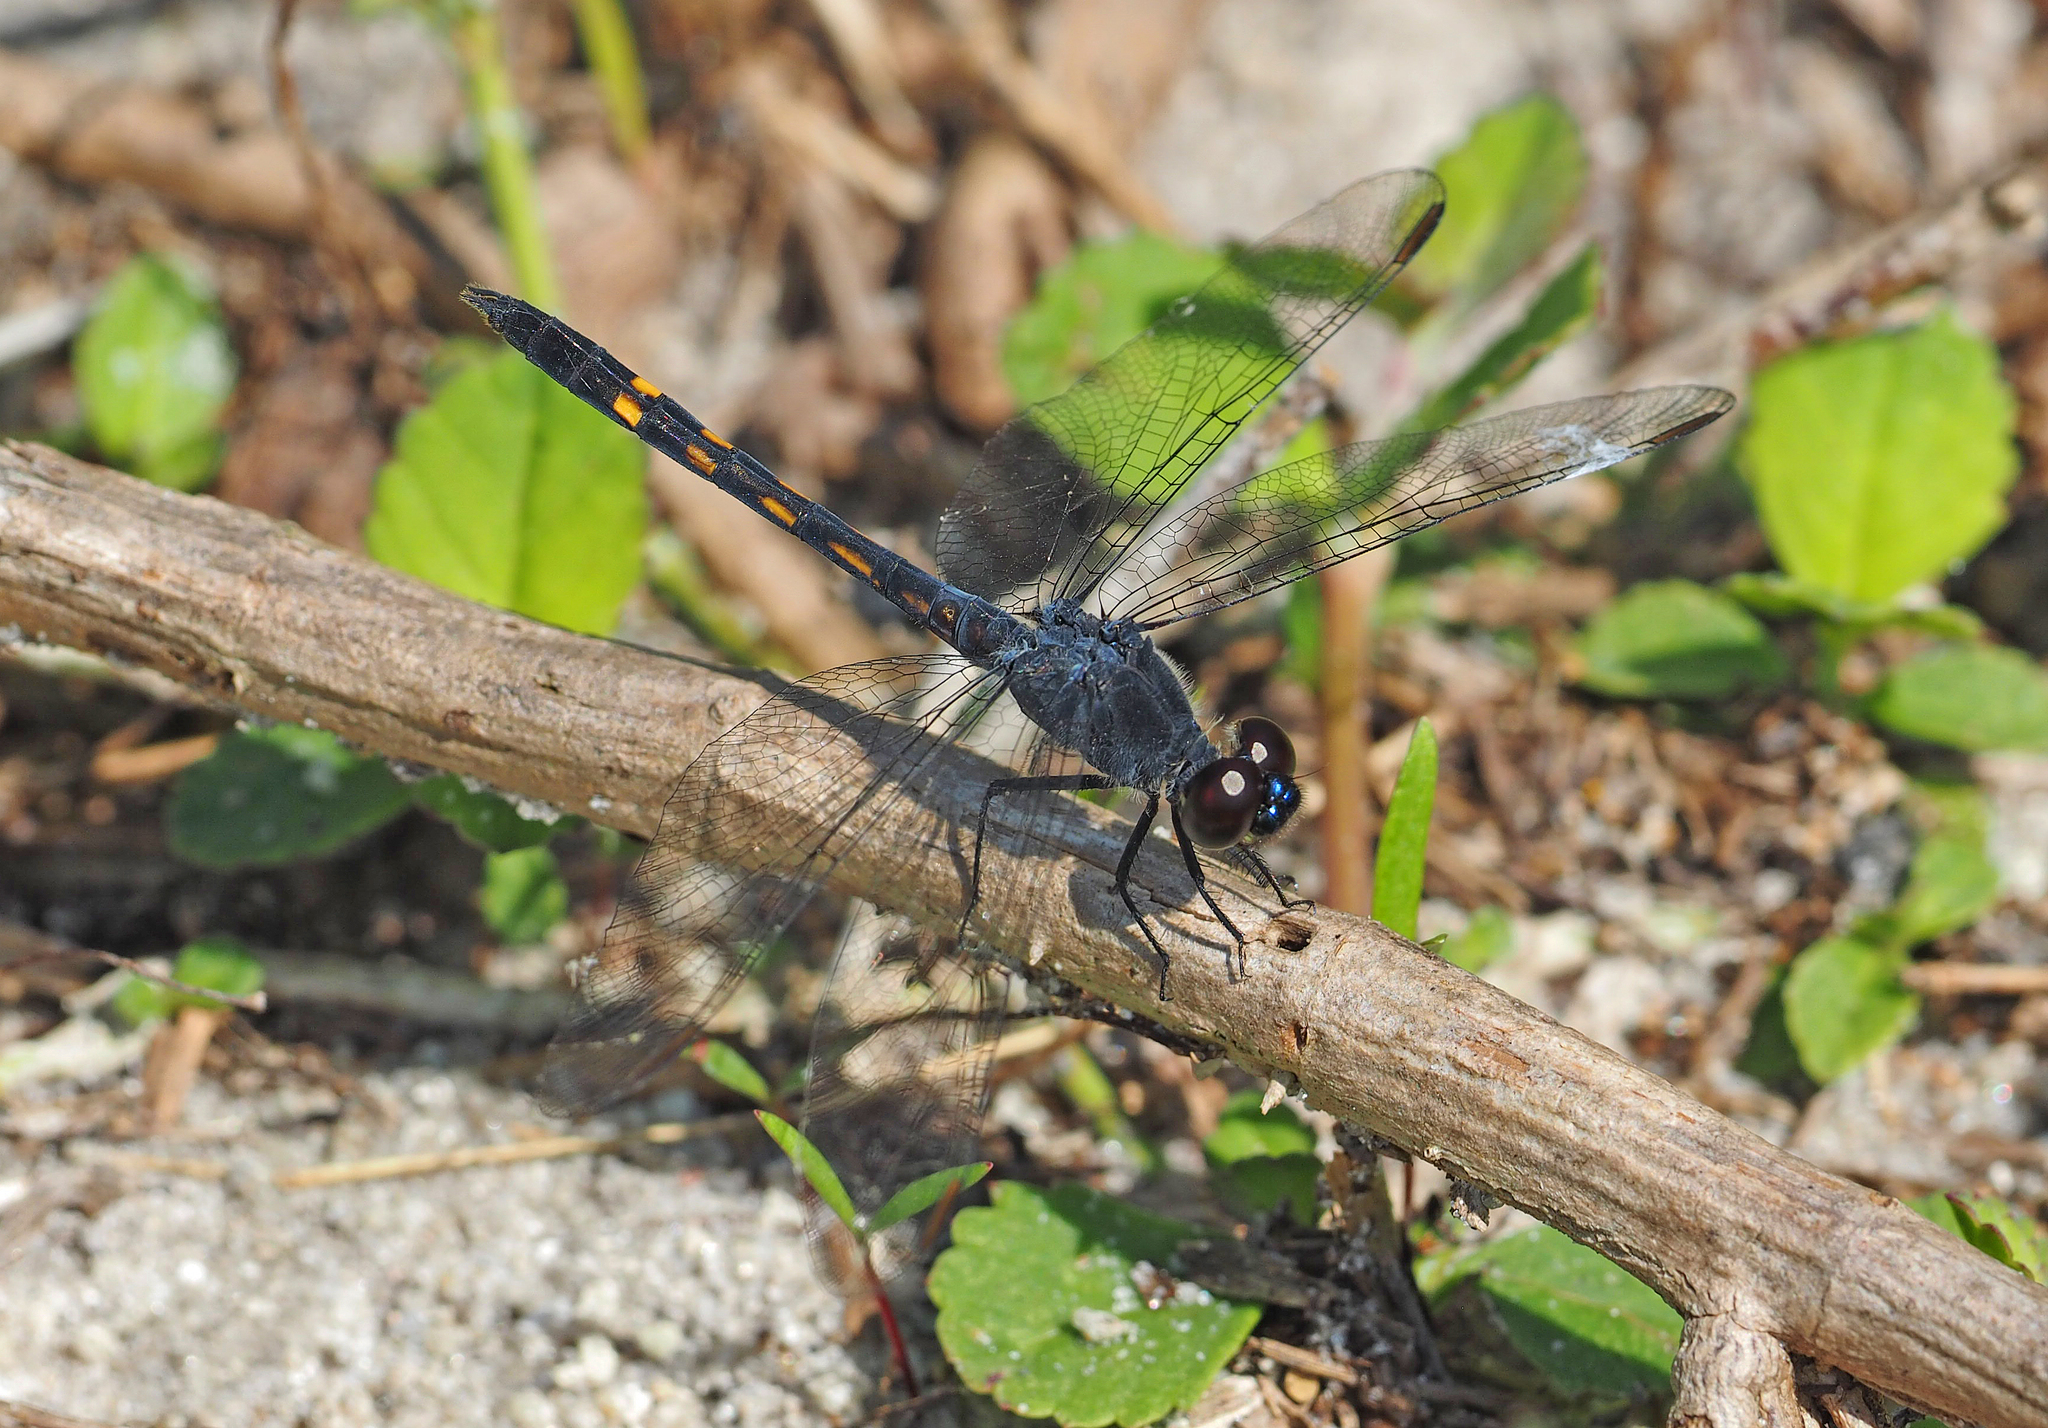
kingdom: Animalia
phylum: Arthropoda
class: Insecta
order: Odonata
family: Libellulidae
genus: Erythrodiplax
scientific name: Erythrodiplax berenice
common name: Seaside dragonlet
